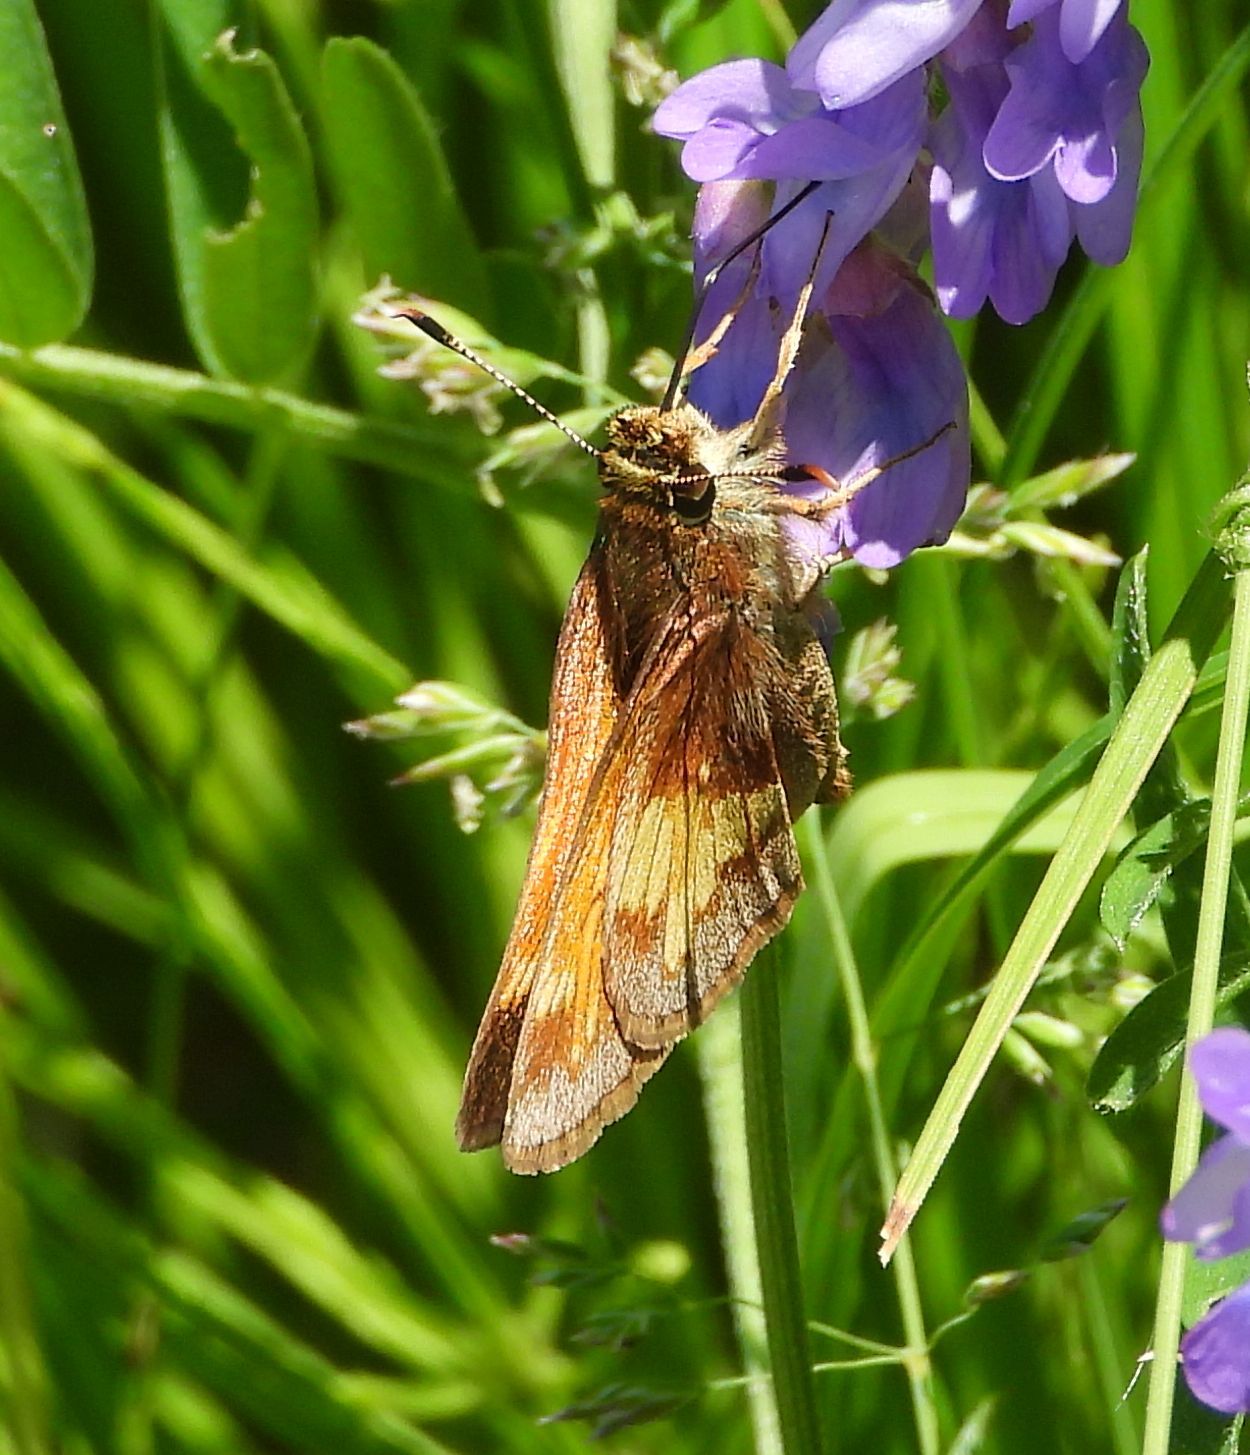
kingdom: Animalia
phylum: Arthropoda
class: Insecta
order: Lepidoptera
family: Hesperiidae
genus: Lon
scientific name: Lon hobomok
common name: Hobomok skipper
